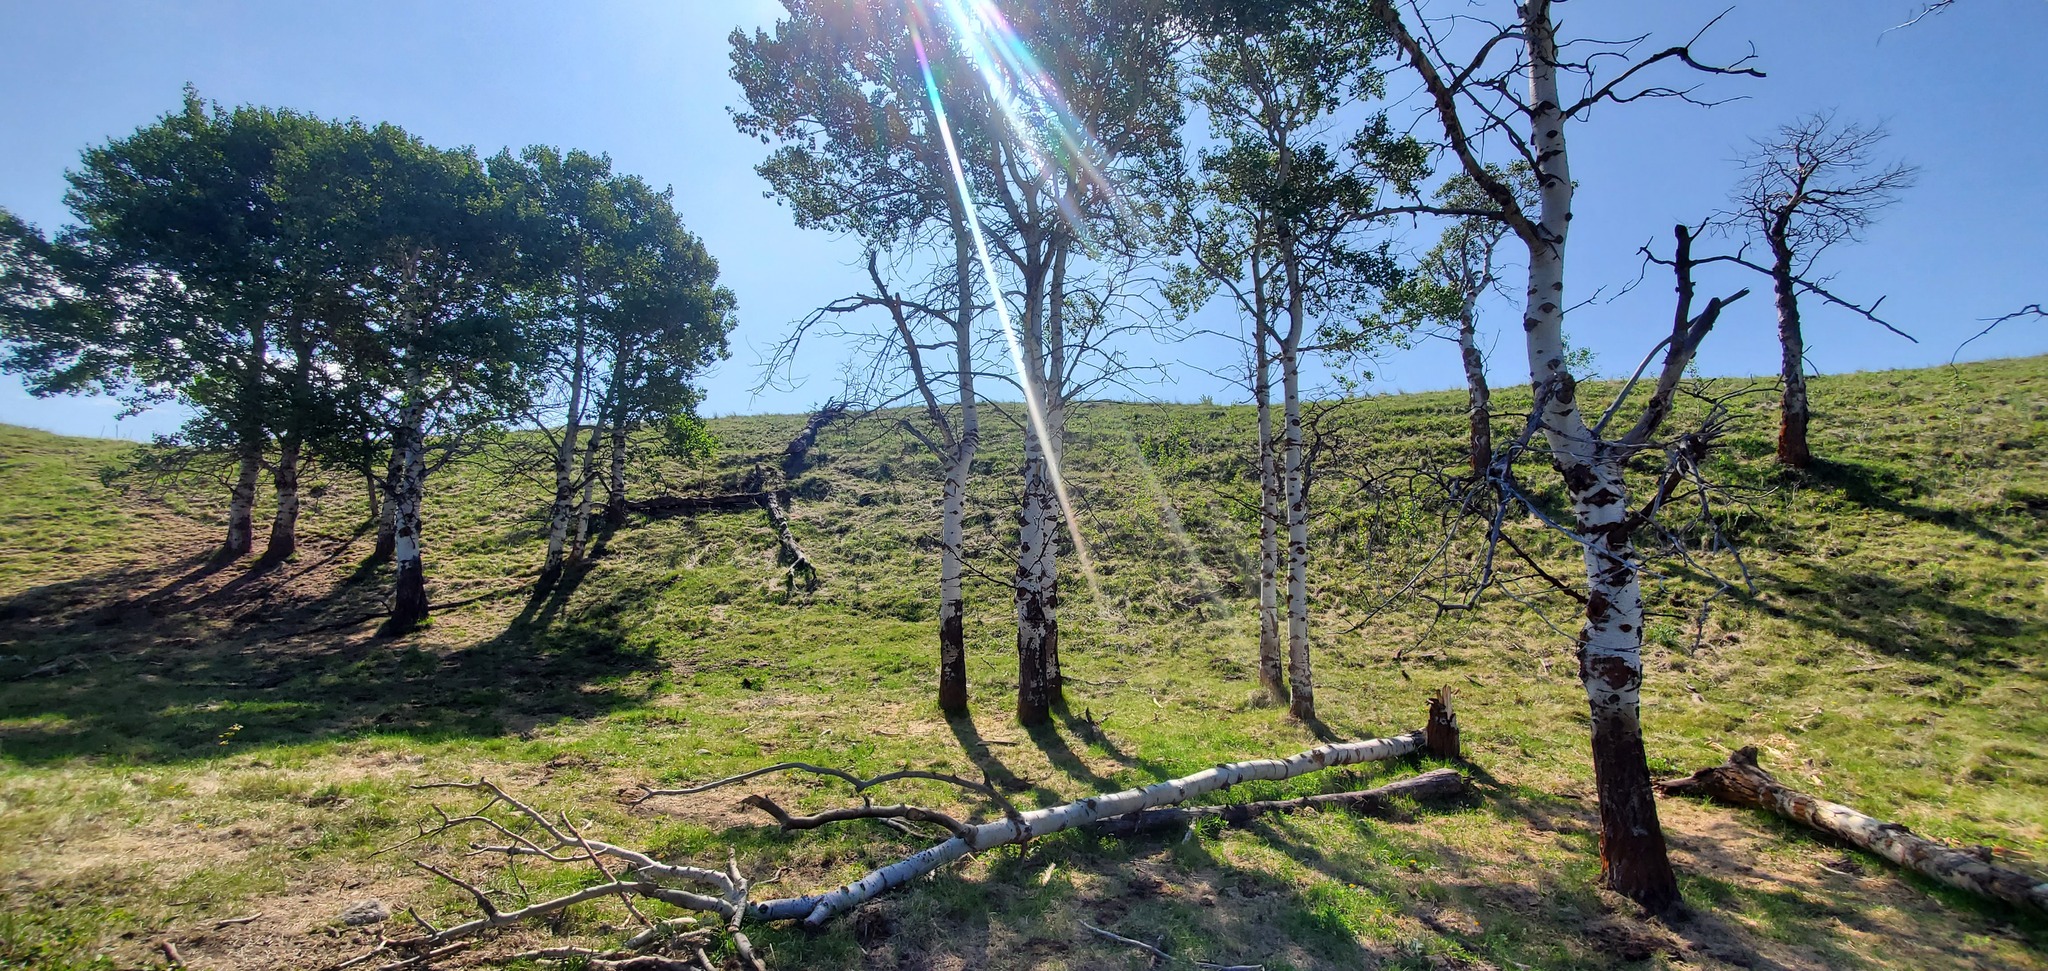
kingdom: Plantae
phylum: Tracheophyta
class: Magnoliopsida
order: Malpighiales
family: Salicaceae
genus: Populus
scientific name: Populus tremuloides
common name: Quaking aspen
